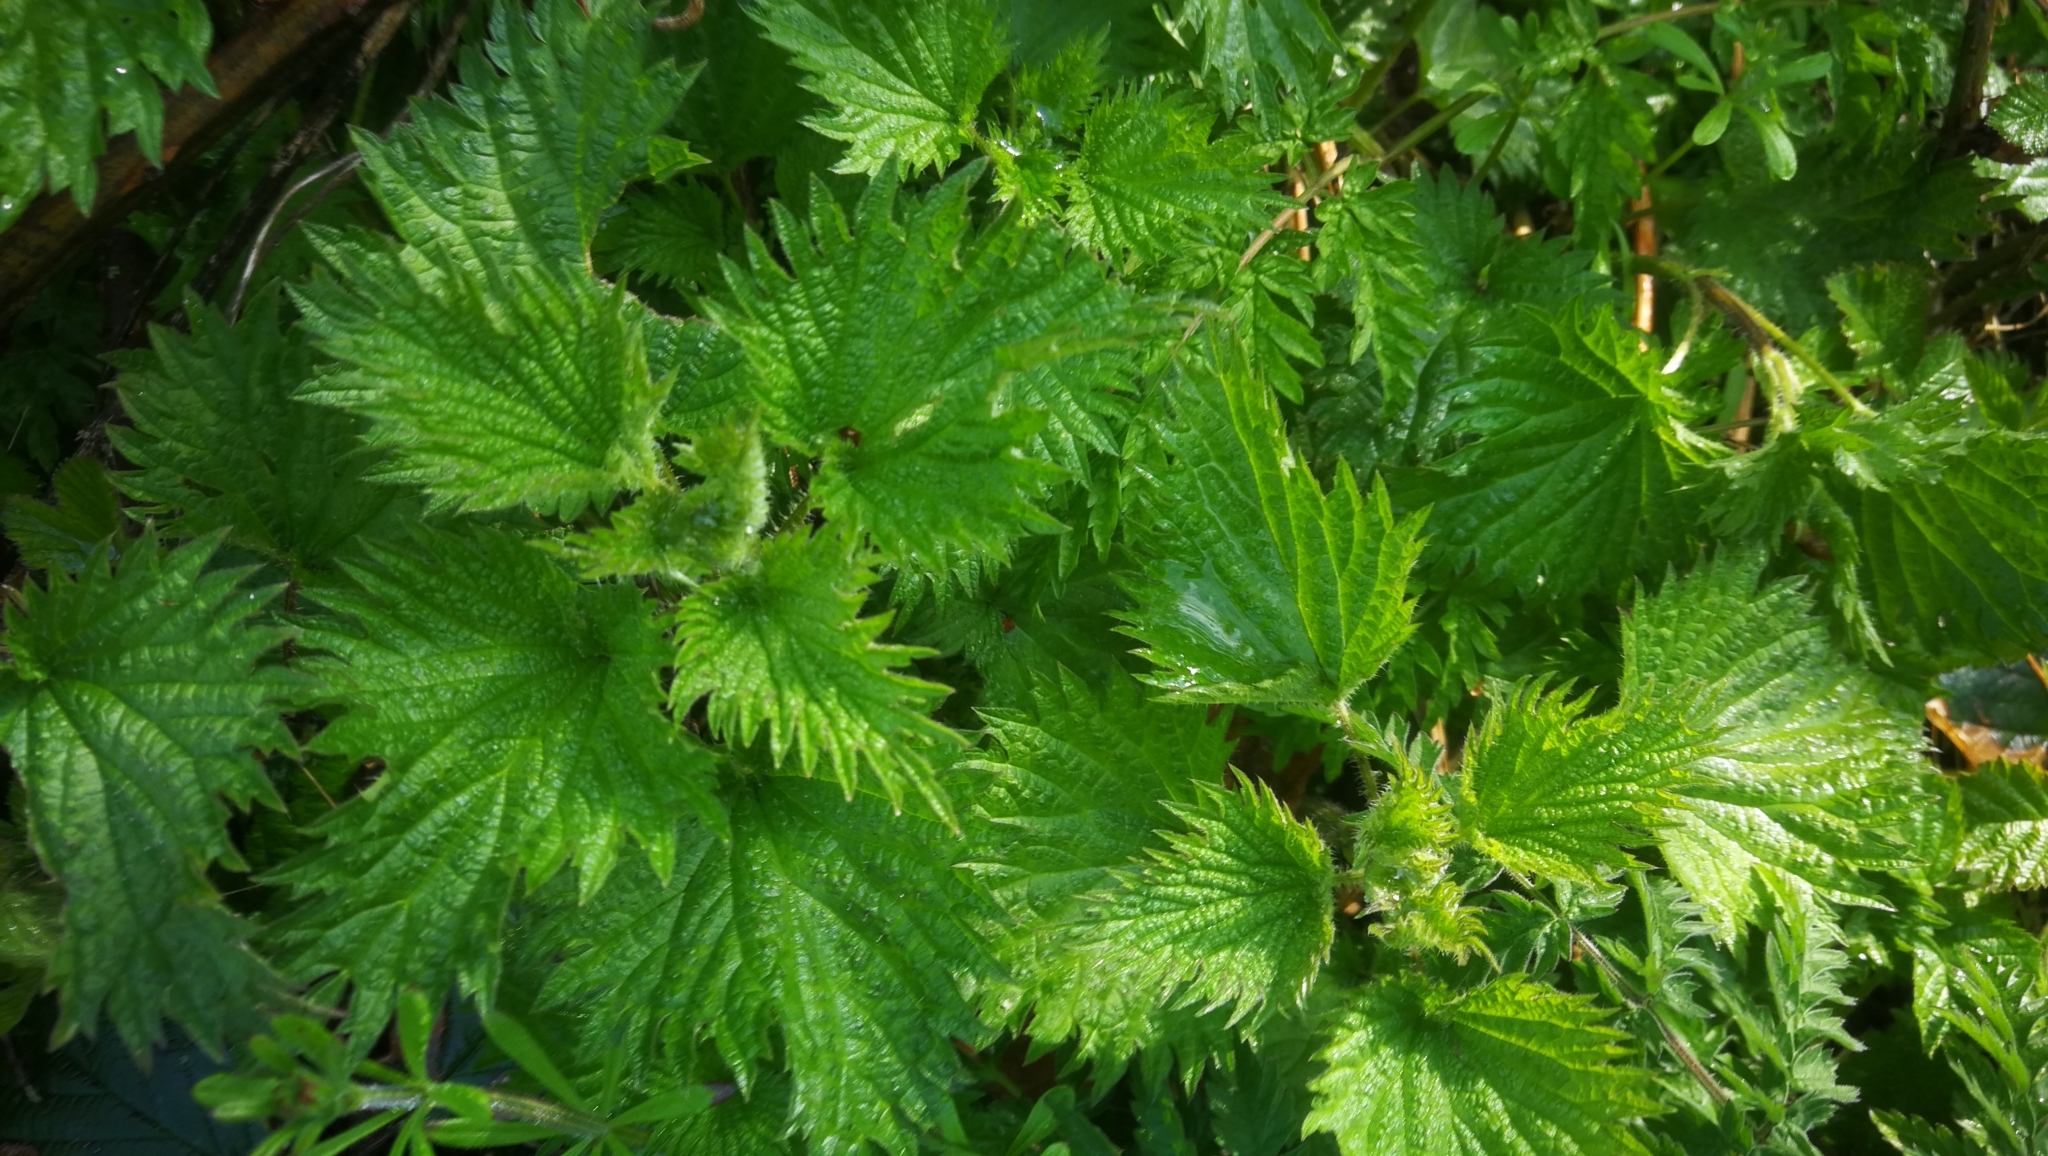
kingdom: Plantae
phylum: Tracheophyta
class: Magnoliopsida
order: Rosales
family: Urticaceae
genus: Urtica
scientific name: Urtica dioica
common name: Common nettle
